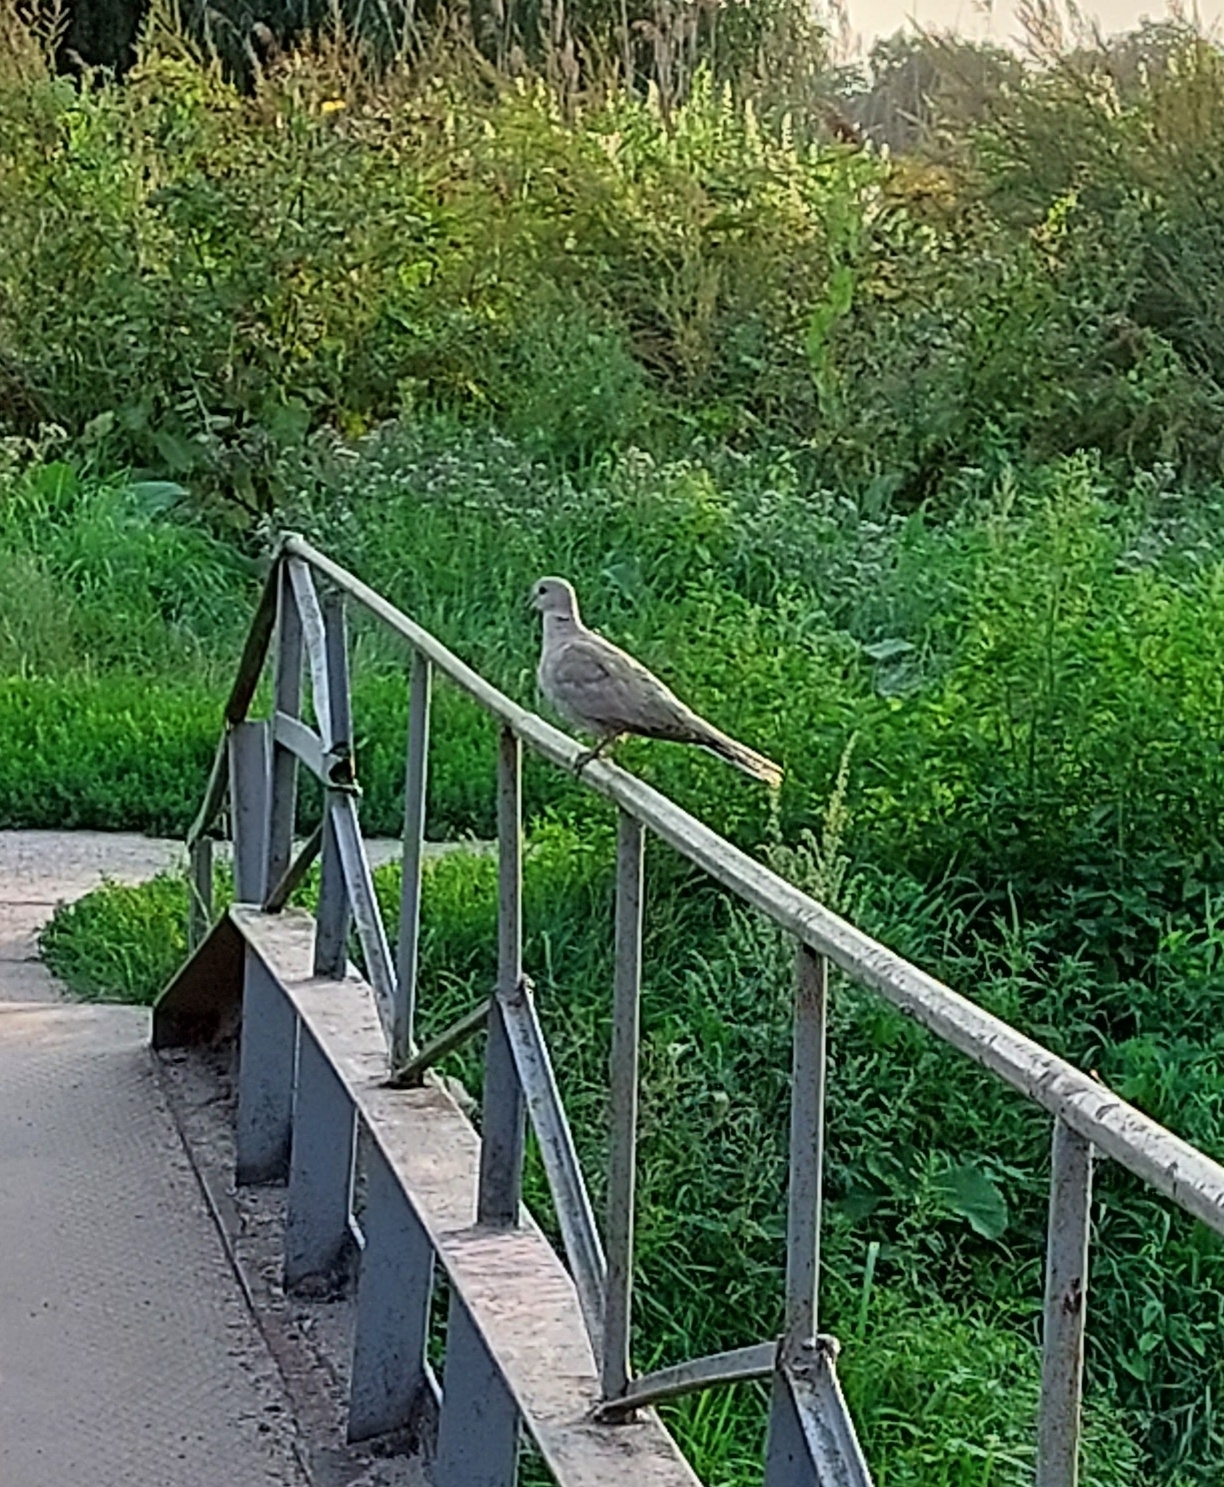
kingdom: Animalia
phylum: Chordata
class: Aves
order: Columbiformes
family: Columbidae
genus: Streptopelia
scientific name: Streptopelia decaocto
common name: Eurasian collared dove
